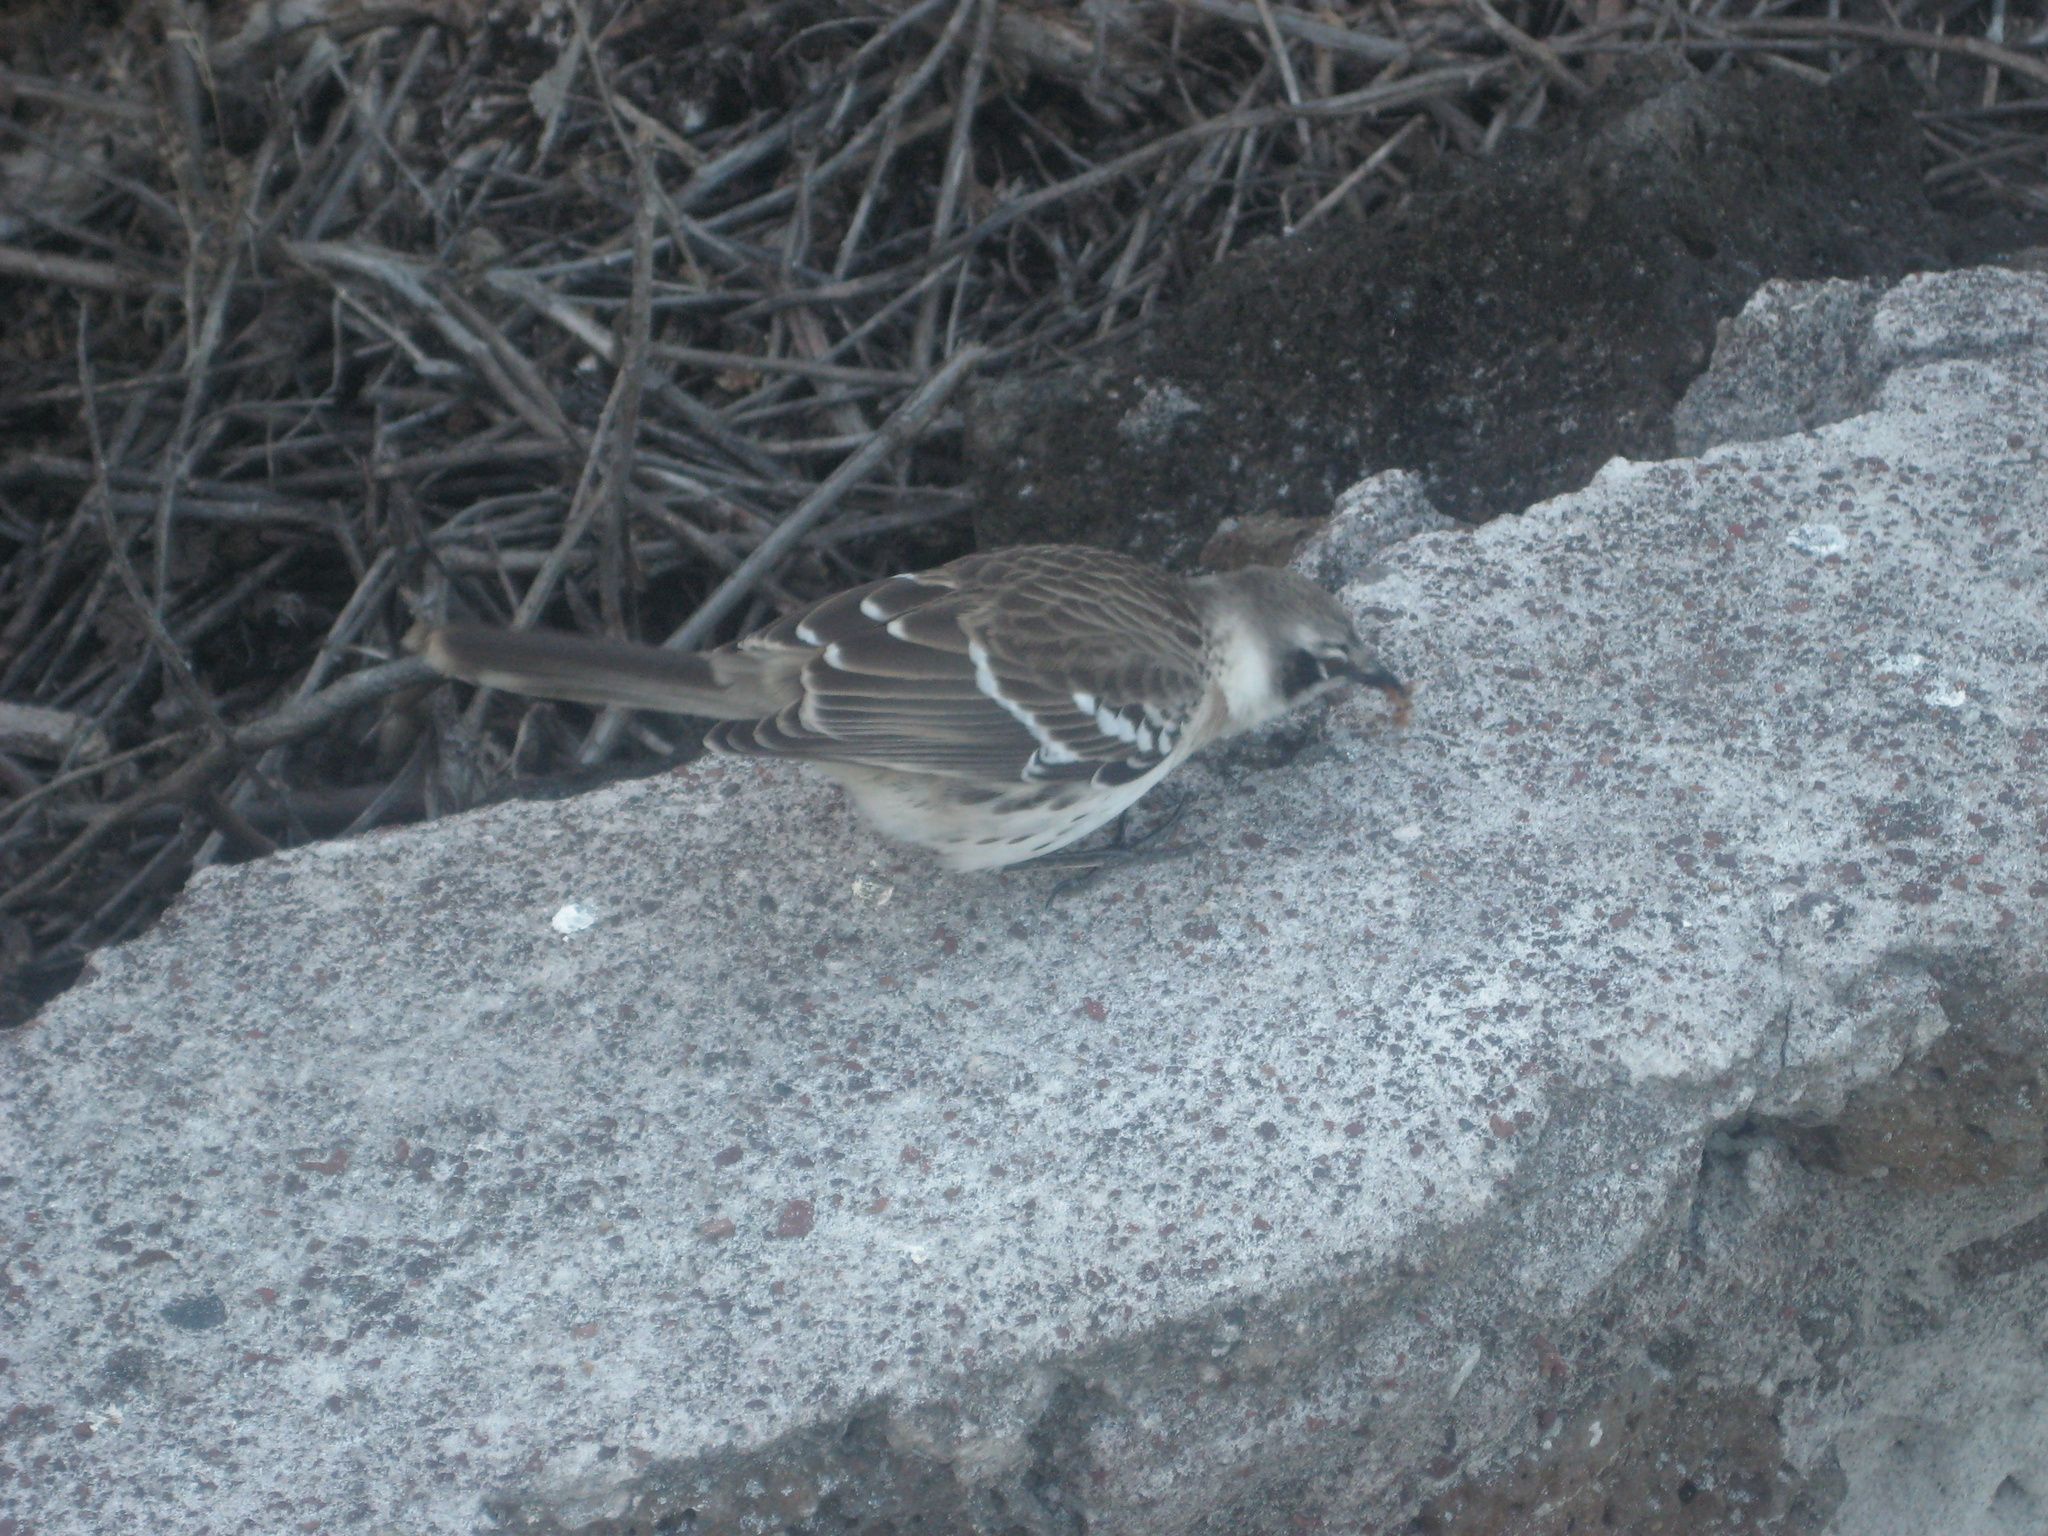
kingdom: Animalia
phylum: Chordata
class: Aves
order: Passeriformes
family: Mimidae
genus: Mimus
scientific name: Mimus parvulus
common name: Galapagos mockingbird
